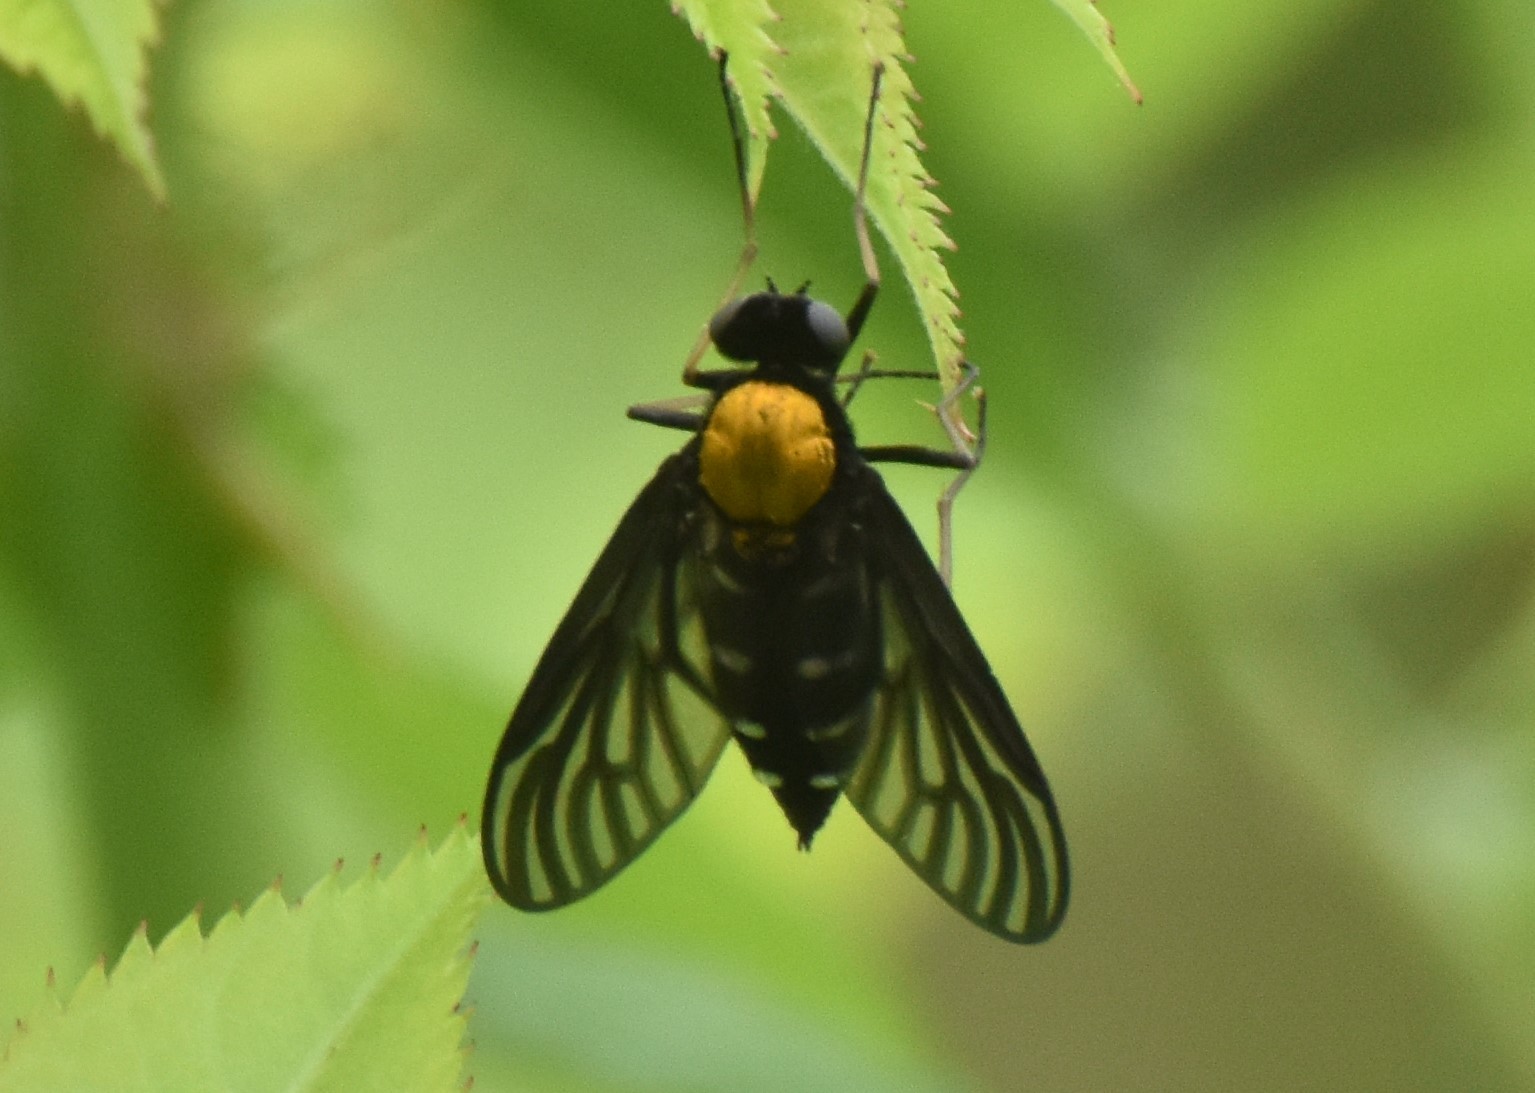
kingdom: Animalia
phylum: Arthropoda
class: Insecta
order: Diptera
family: Rhagionidae
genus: Chrysopilus
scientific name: Chrysopilus thoracicus
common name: Golden-backed snipe fly
